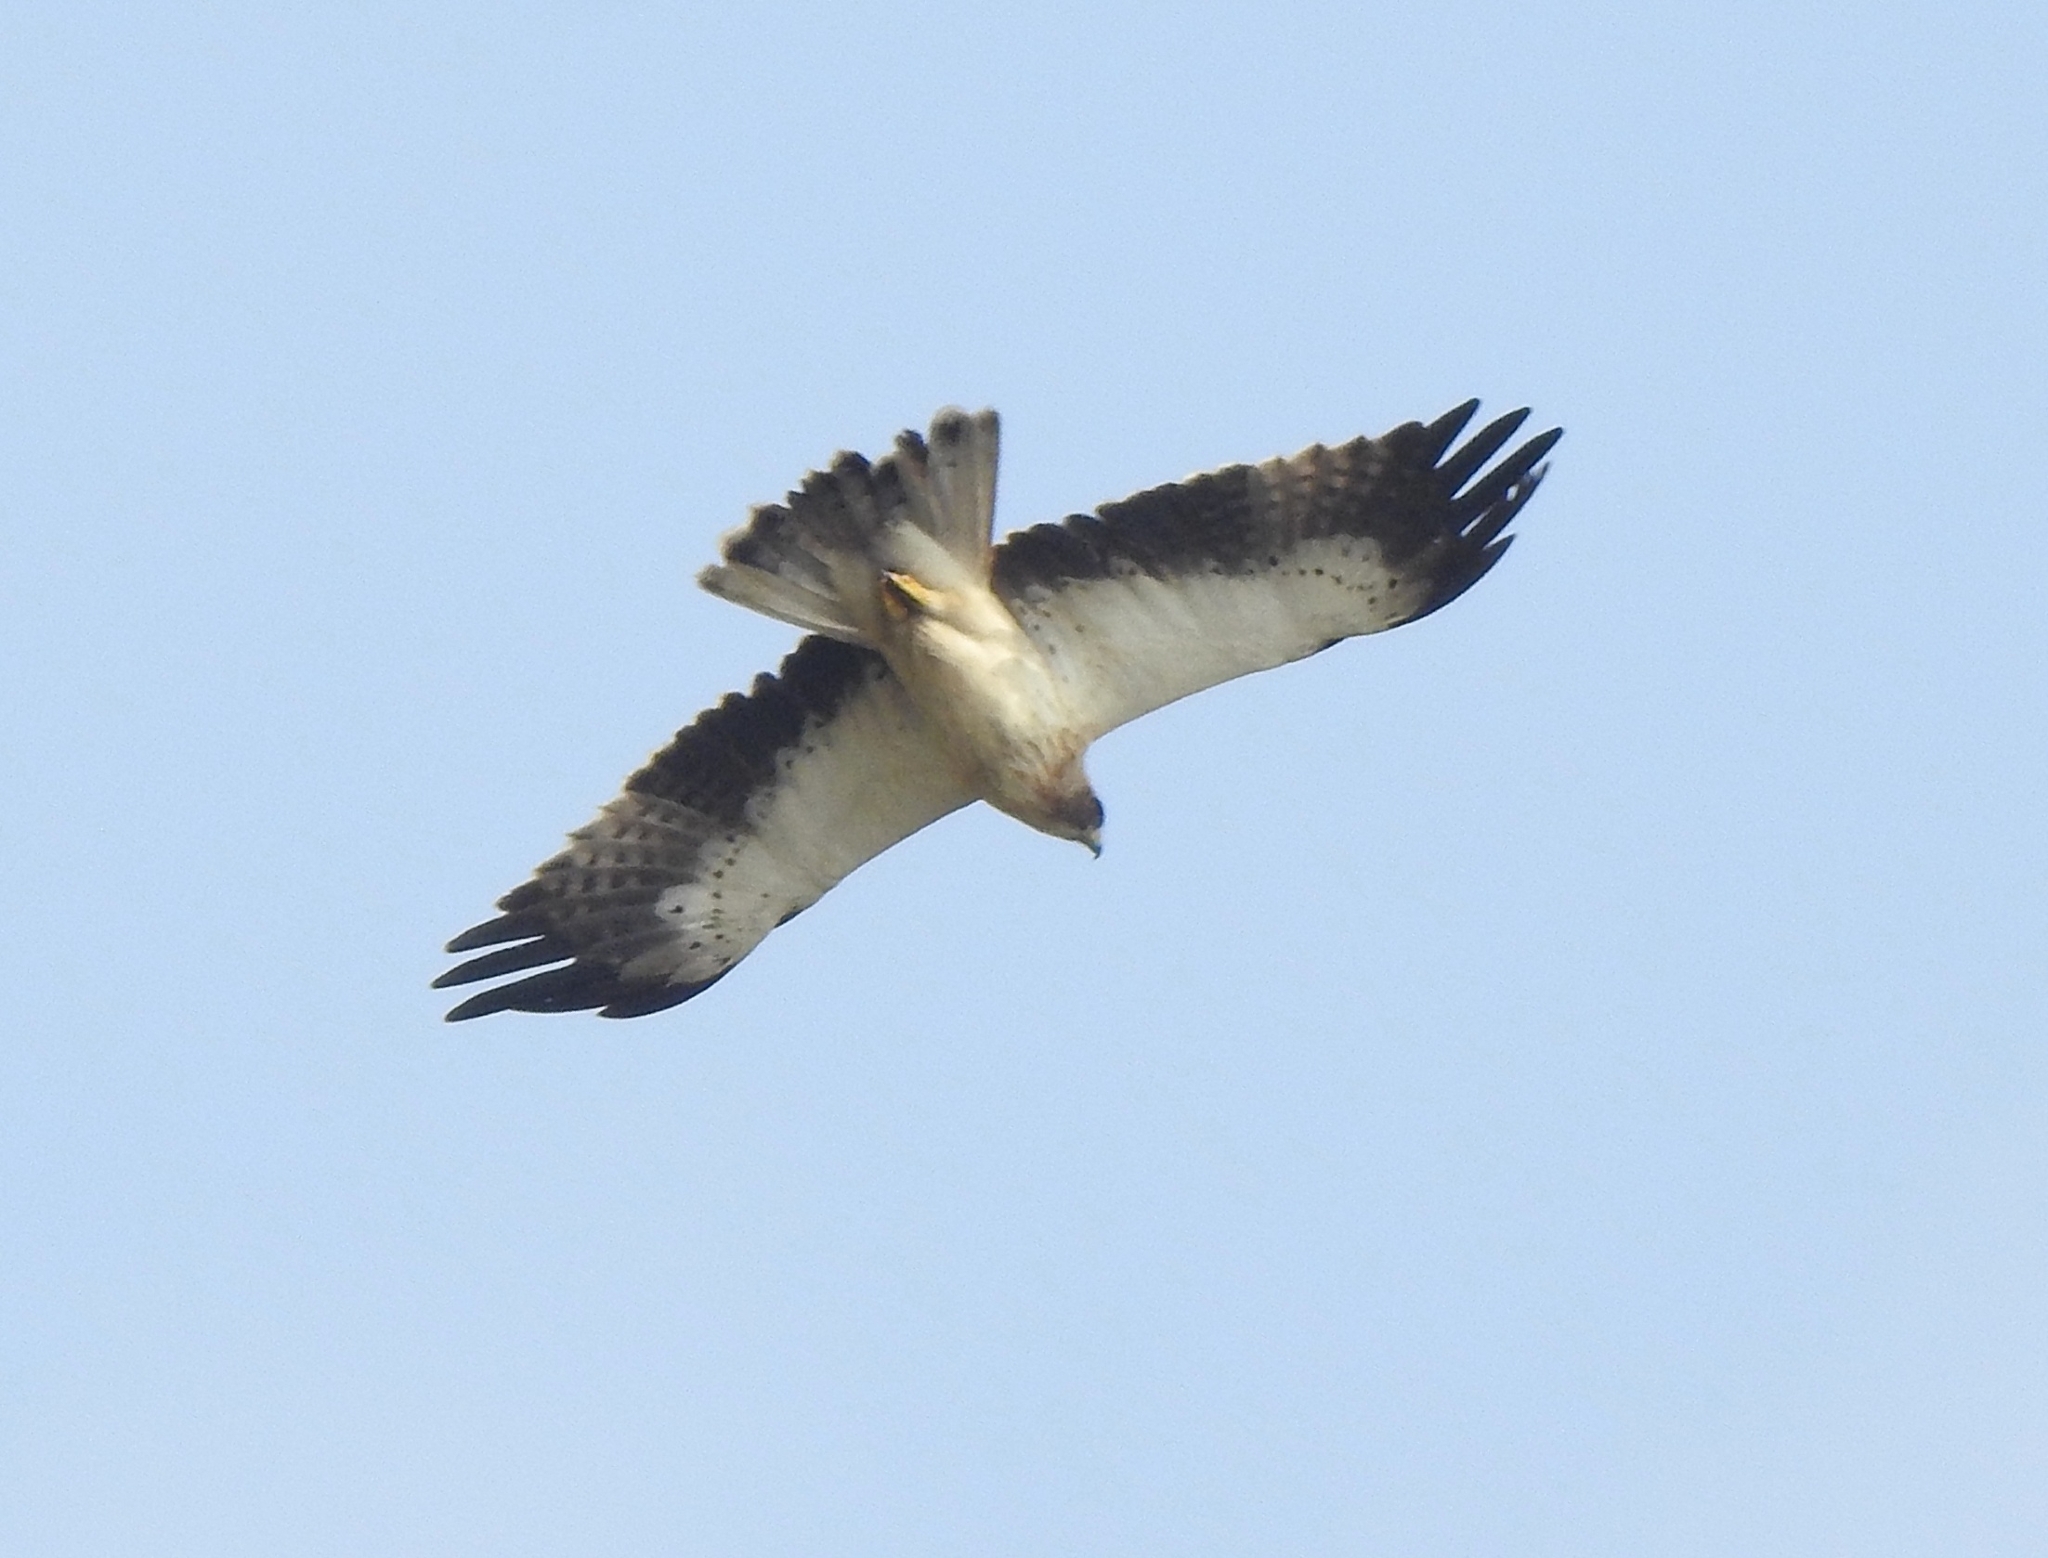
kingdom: Animalia
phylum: Chordata
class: Aves
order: Accipitriformes
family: Accipitridae
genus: Hieraaetus
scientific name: Hieraaetus pennatus
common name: Booted eagle
